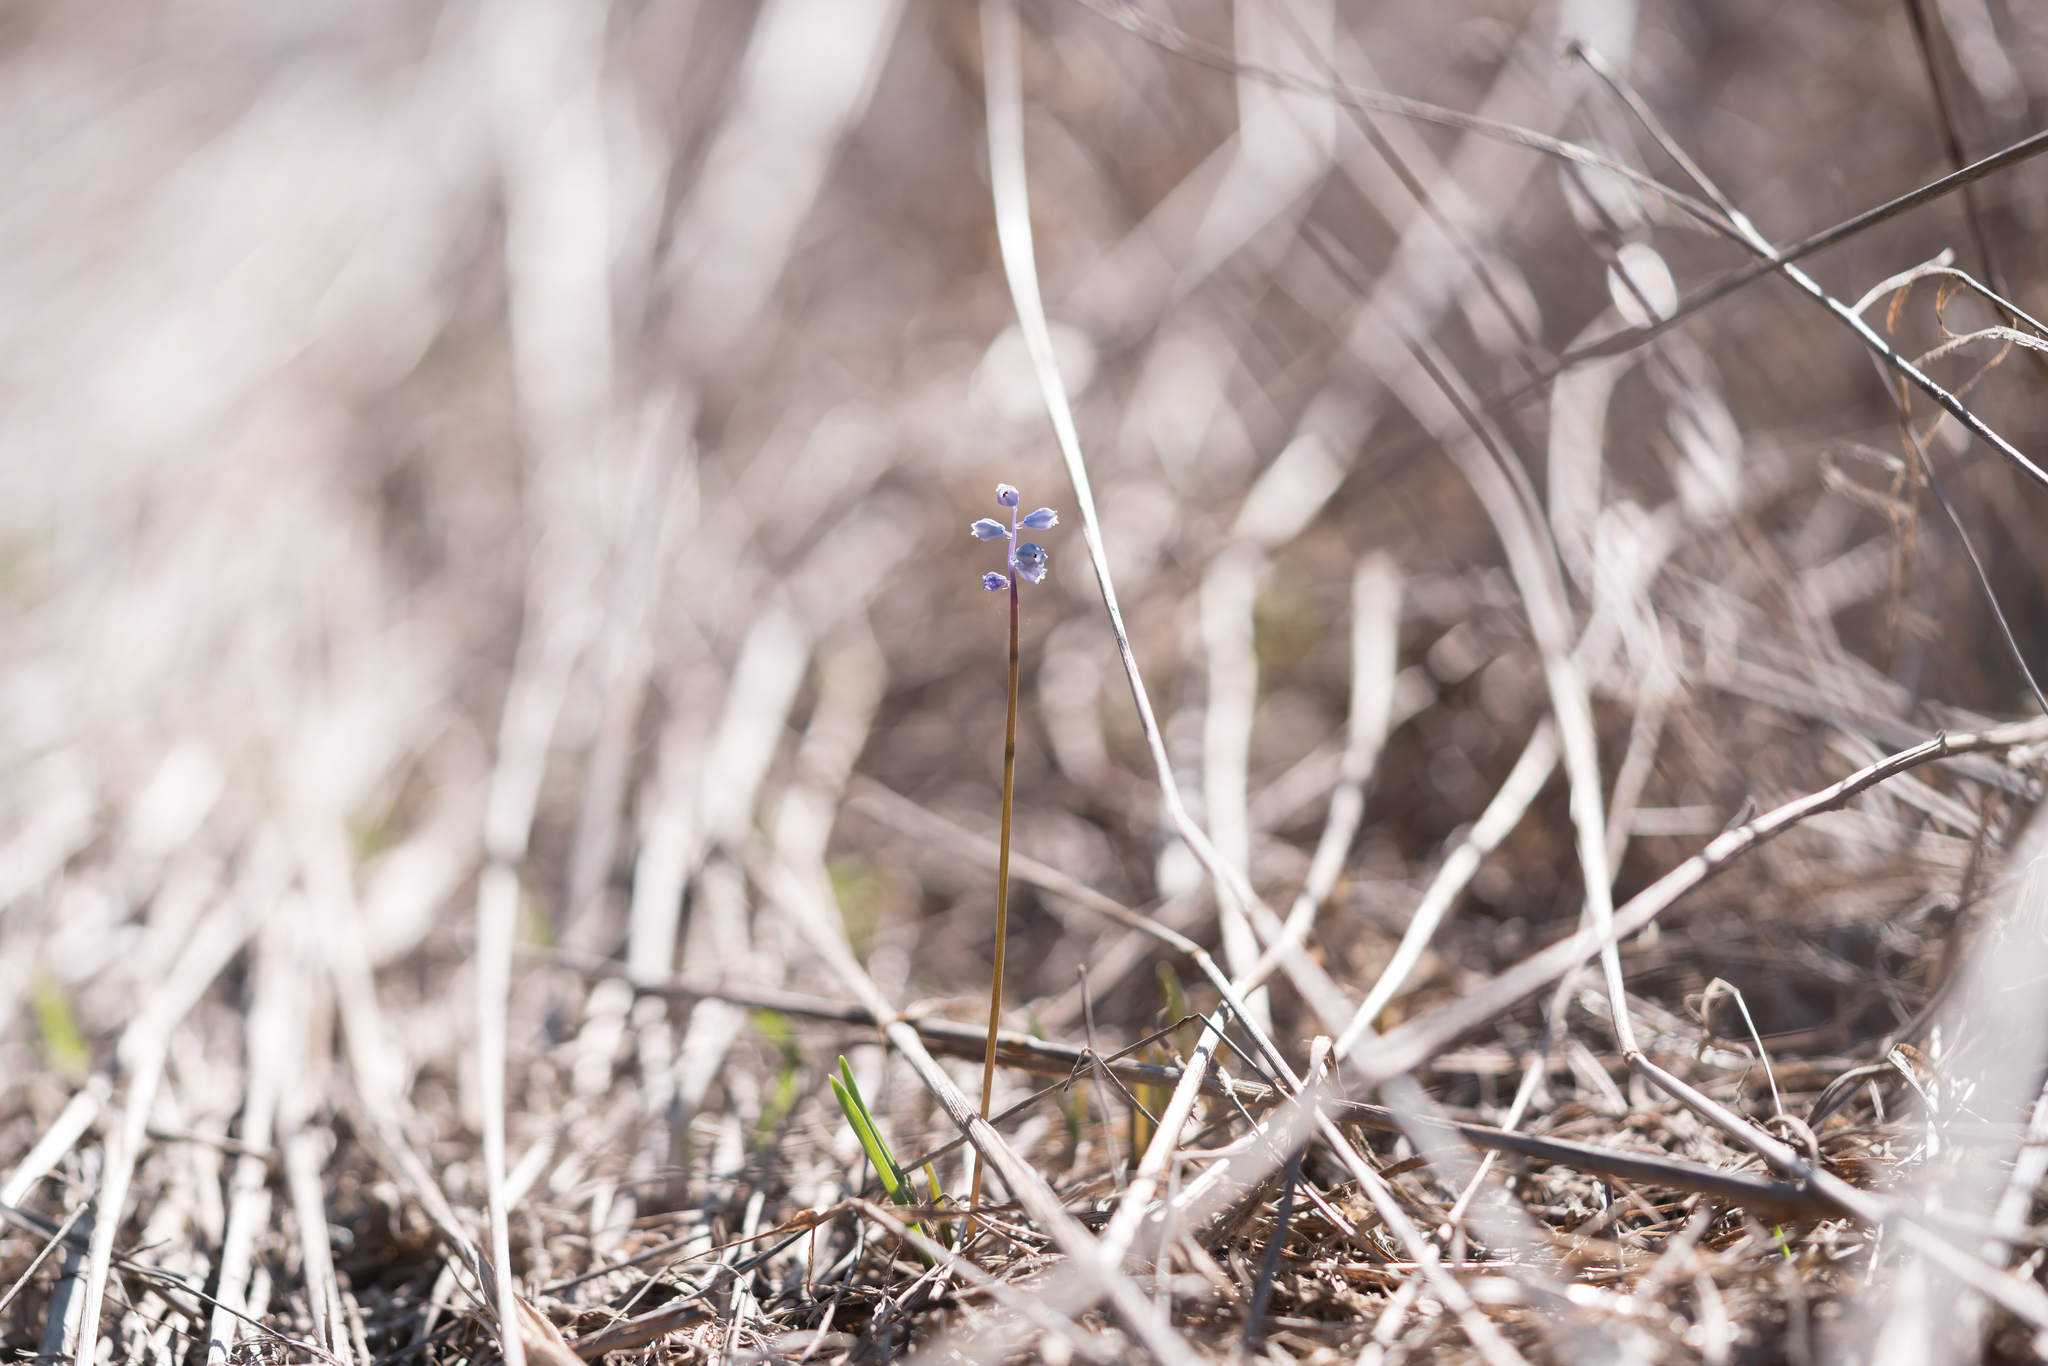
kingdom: Plantae
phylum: Tracheophyta
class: Liliopsida
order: Asparagales
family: Asparagaceae
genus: Muscari
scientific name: Muscari parviflorum
